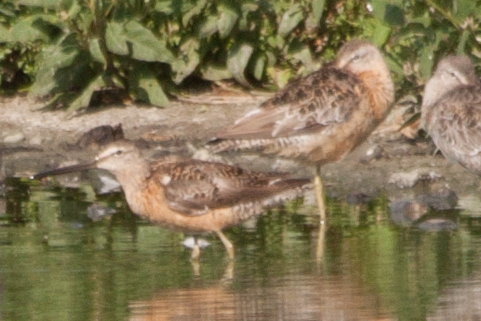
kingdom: Animalia
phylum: Chordata
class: Aves
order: Charadriiformes
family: Scolopacidae
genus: Limnodromus
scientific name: Limnodromus scolopaceus
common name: Long-billed dowitcher
